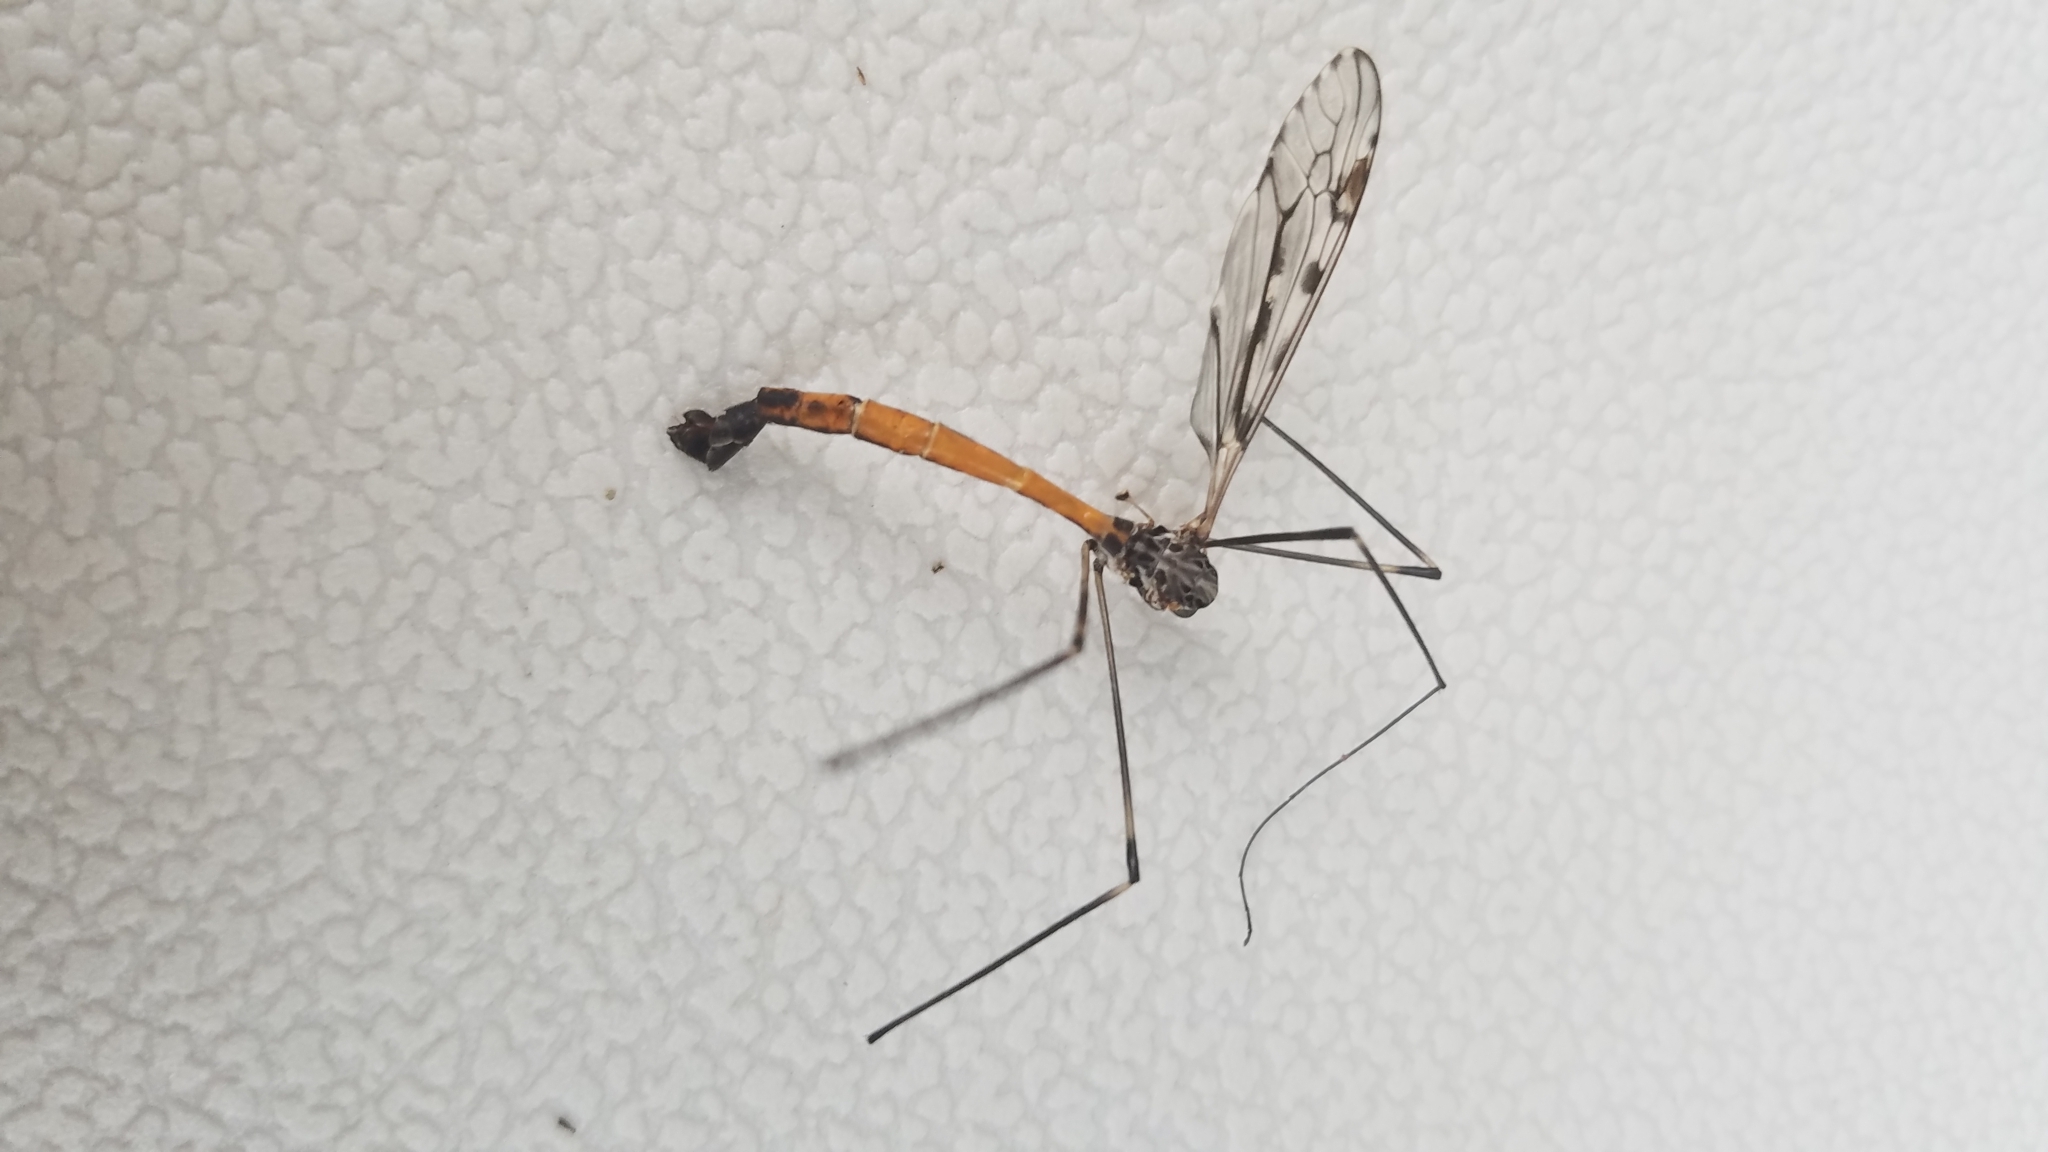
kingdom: Animalia
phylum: Arthropoda
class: Insecta
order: Diptera
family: Tipulidae
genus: Tipula
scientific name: Tipula abdominalis
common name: Giant crane fly
